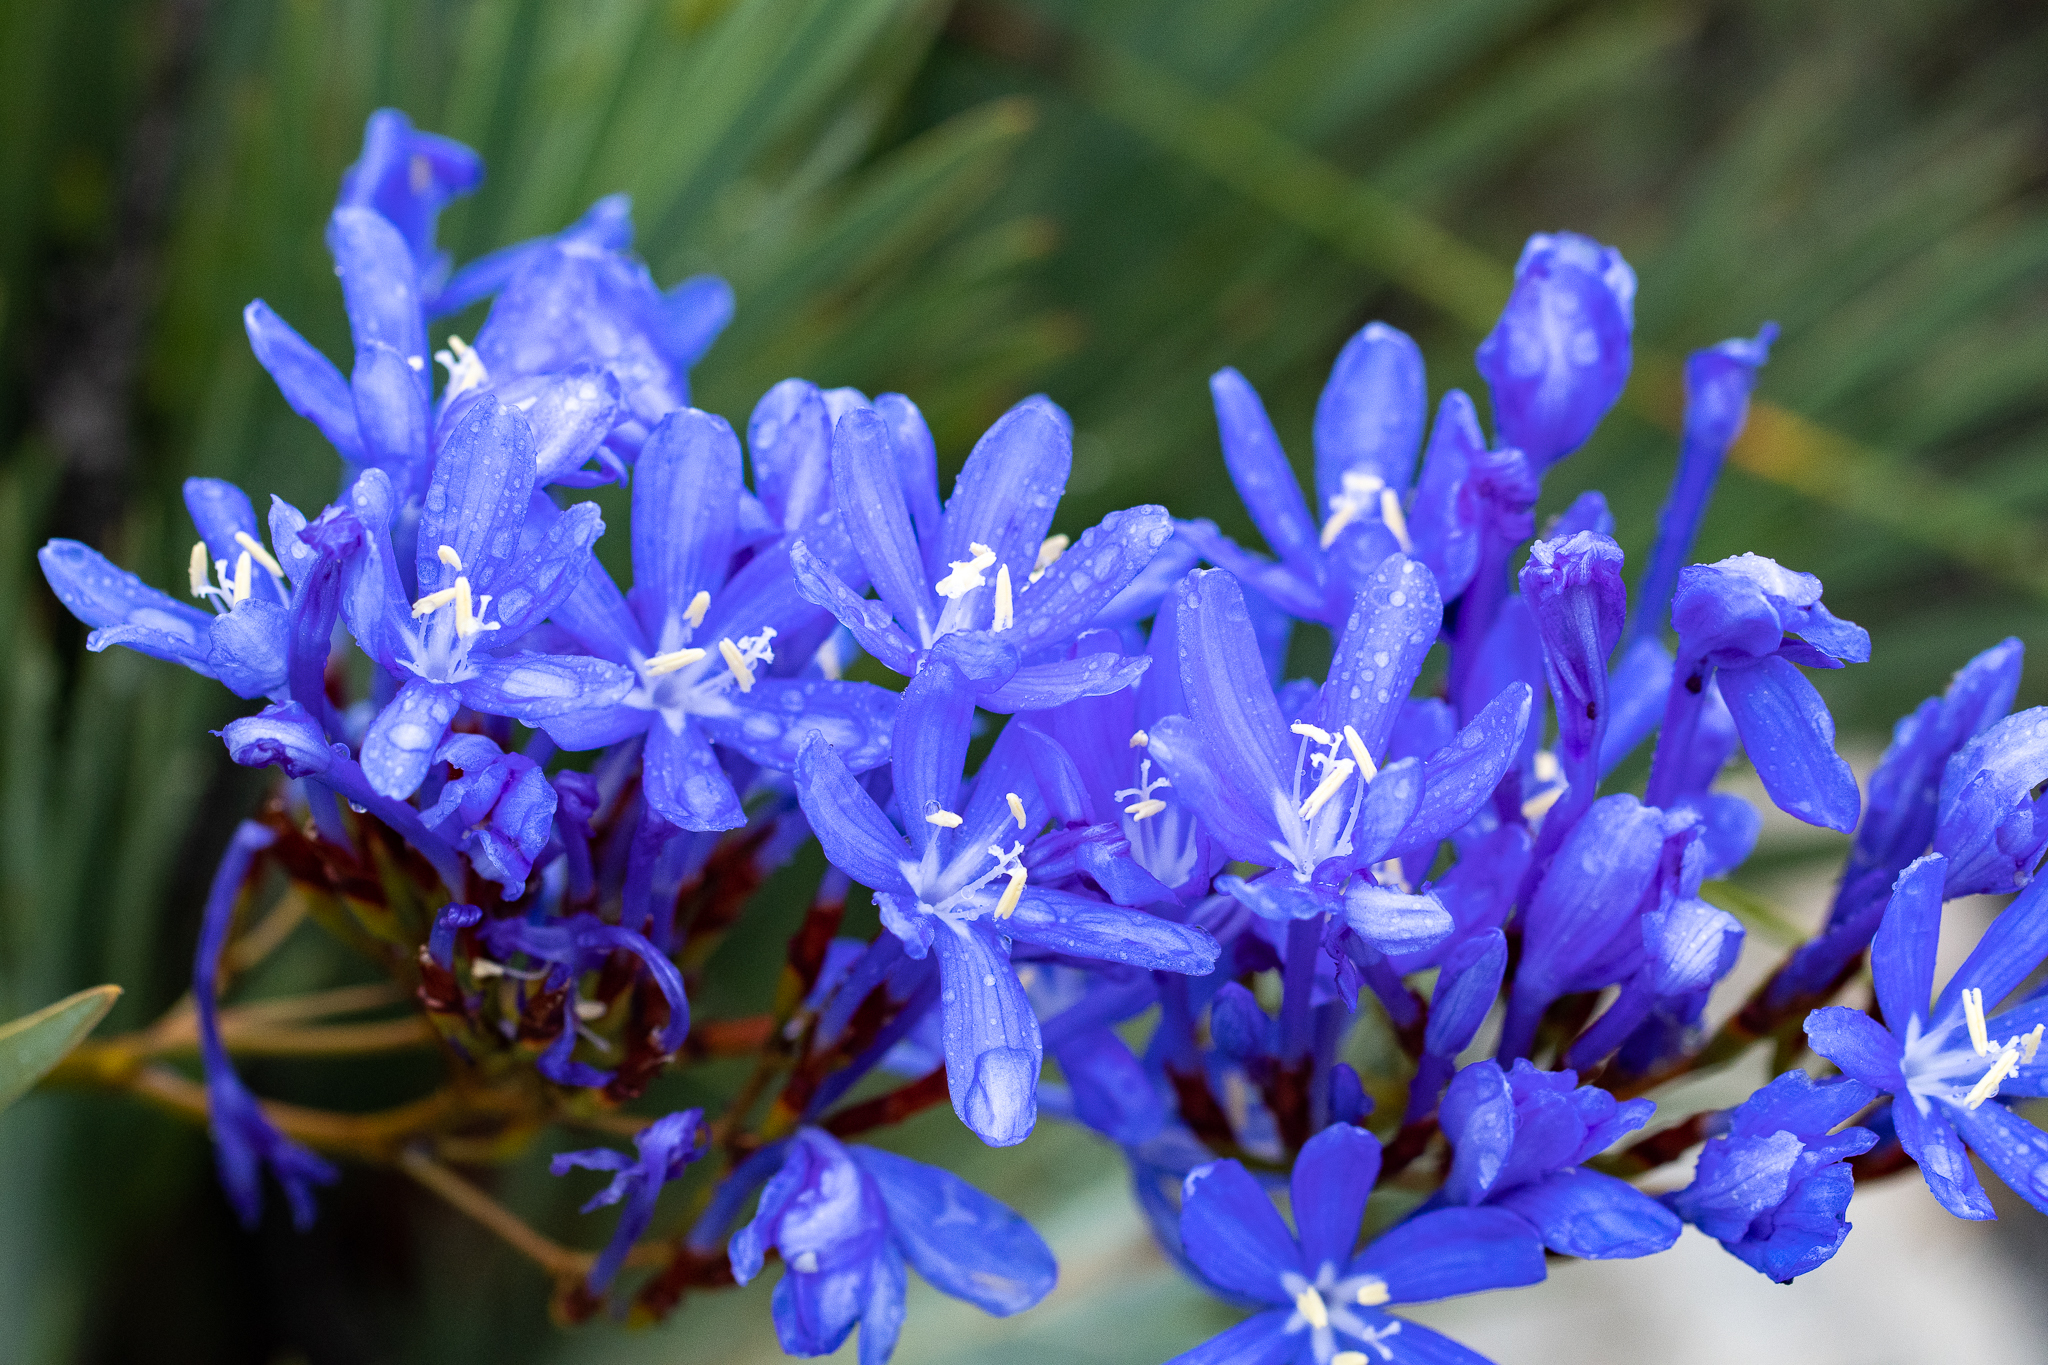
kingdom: Plantae
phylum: Tracheophyta
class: Liliopsida
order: Asparagales
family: Iridaceae
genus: Nivenia
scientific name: Nivenia stokoei
